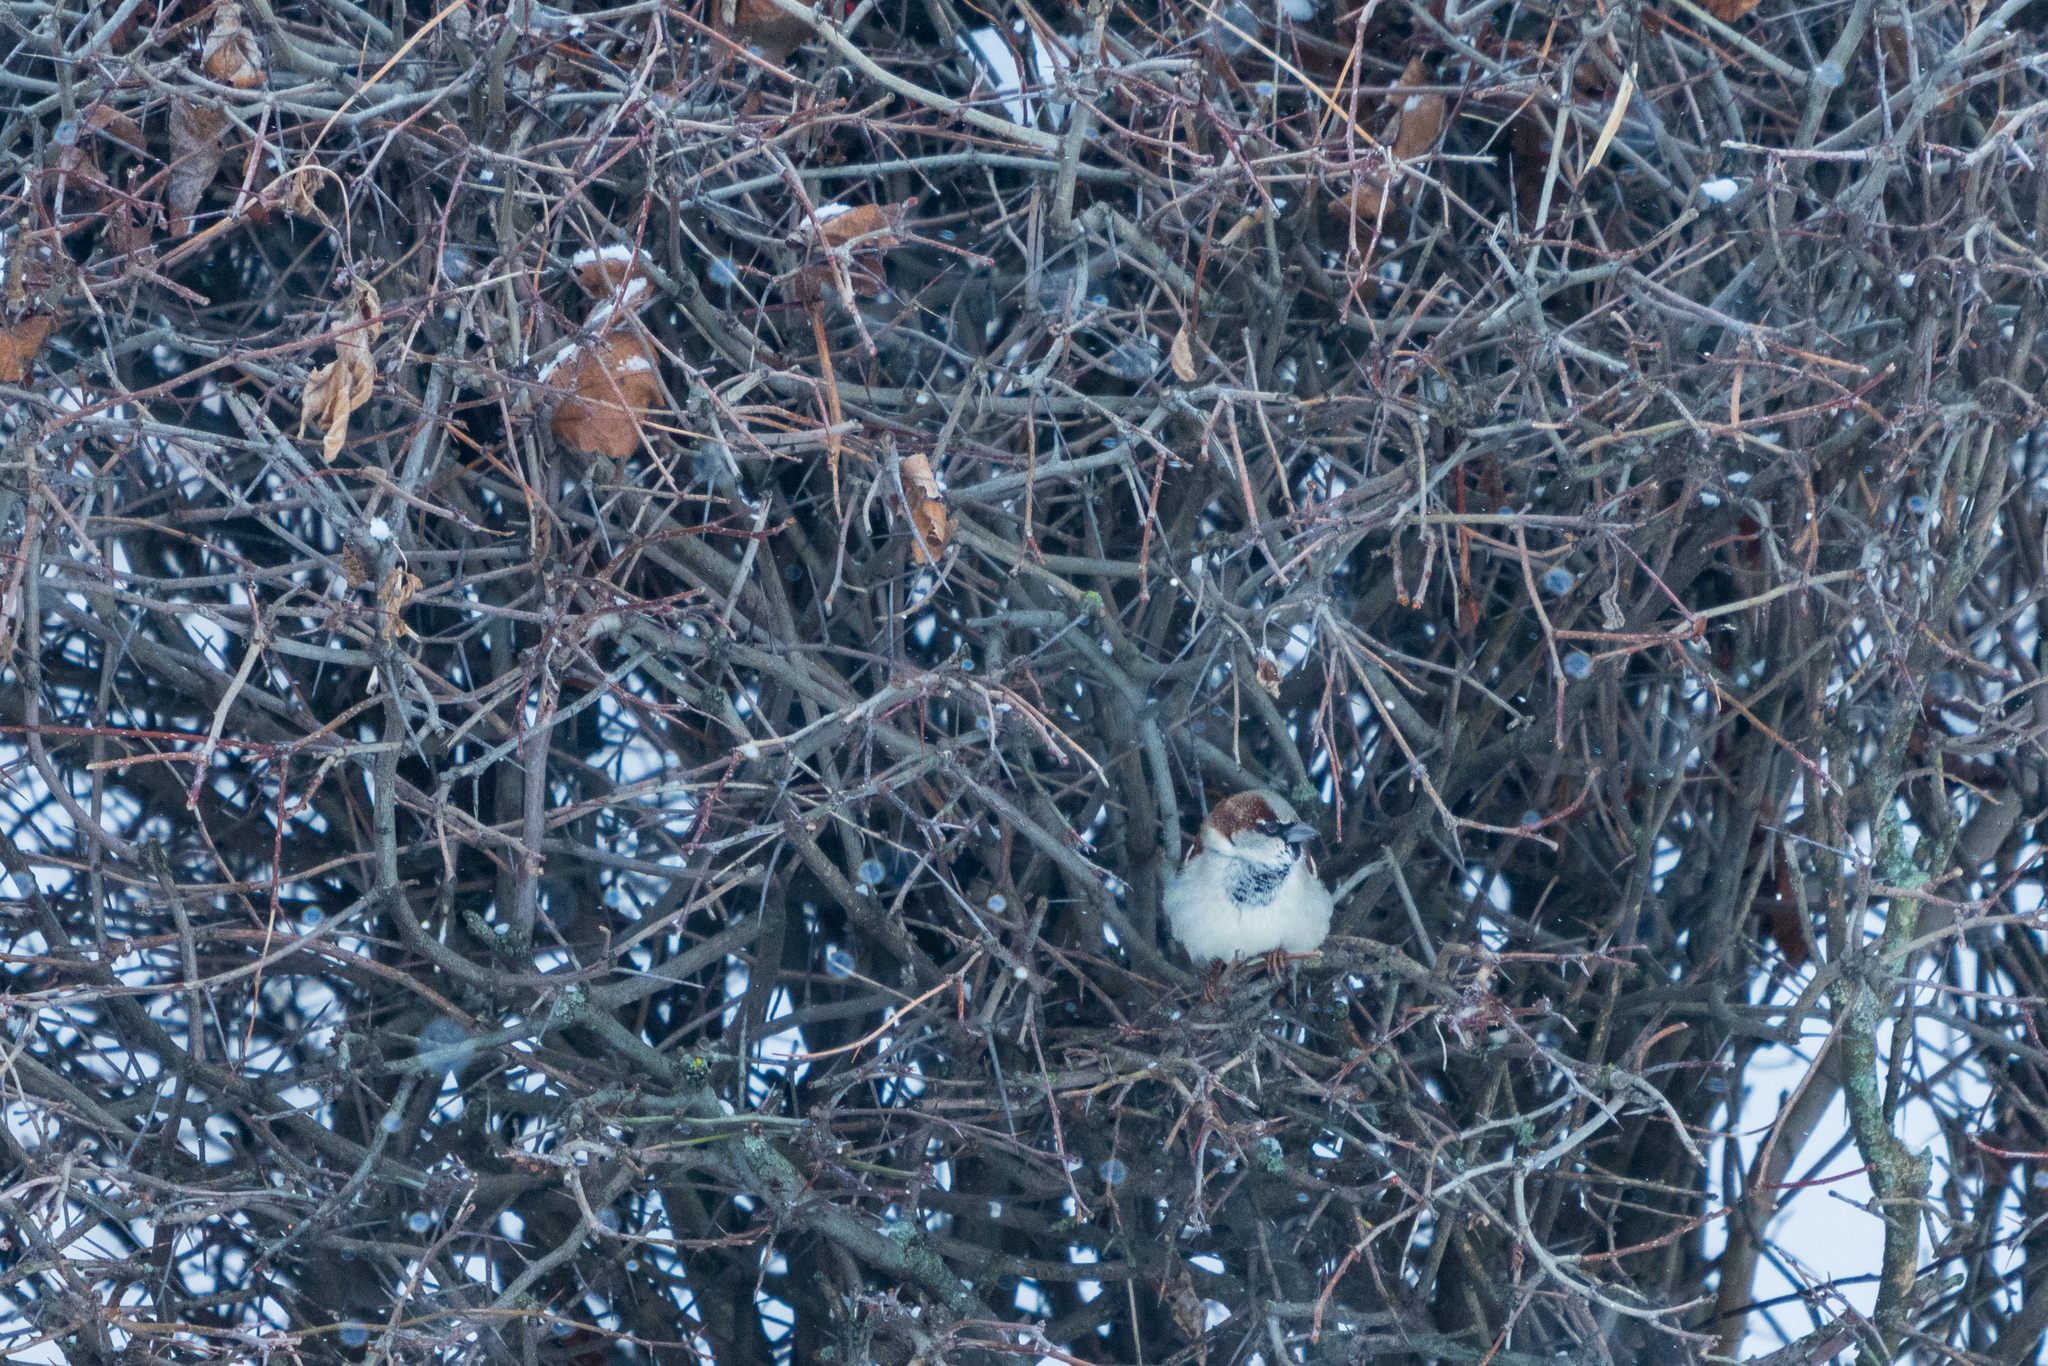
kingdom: Animalia
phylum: Chordata
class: Aves
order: Passeriformes
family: Passeridae
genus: Passer
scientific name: Passer domesticus
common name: House sparrow
